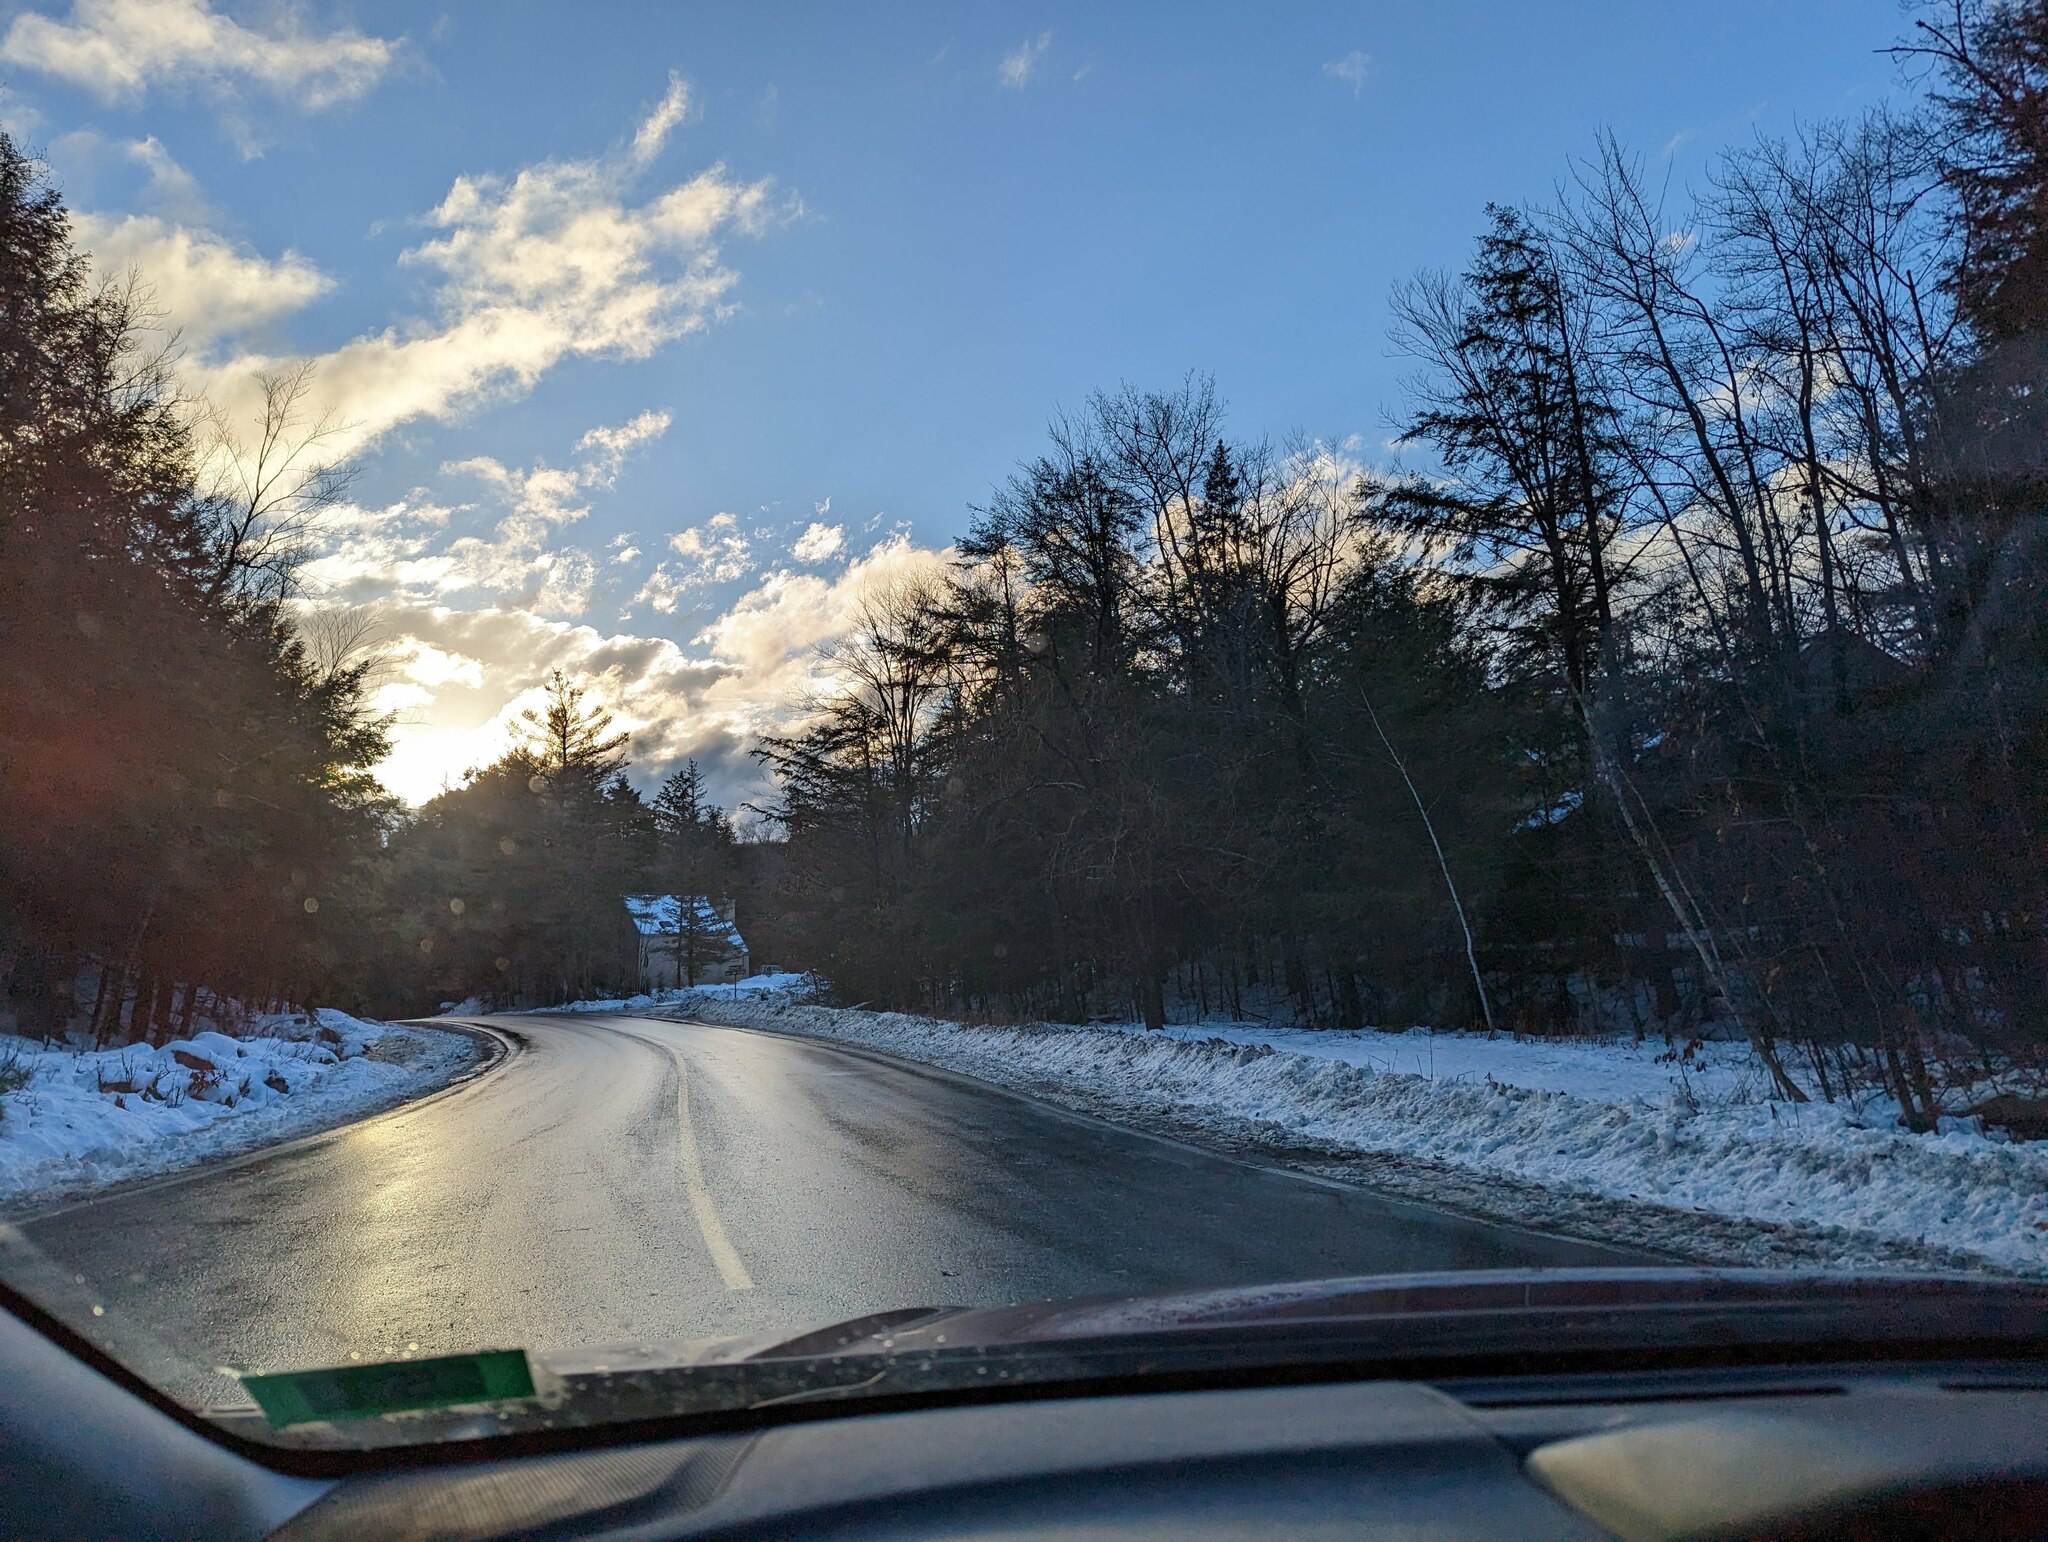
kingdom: Plantae
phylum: Tracheophyta
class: Pinopsida
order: Pinales
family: Pinaceae
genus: Tsuga
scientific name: Tsuga canadensis
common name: Eastern hemlock
